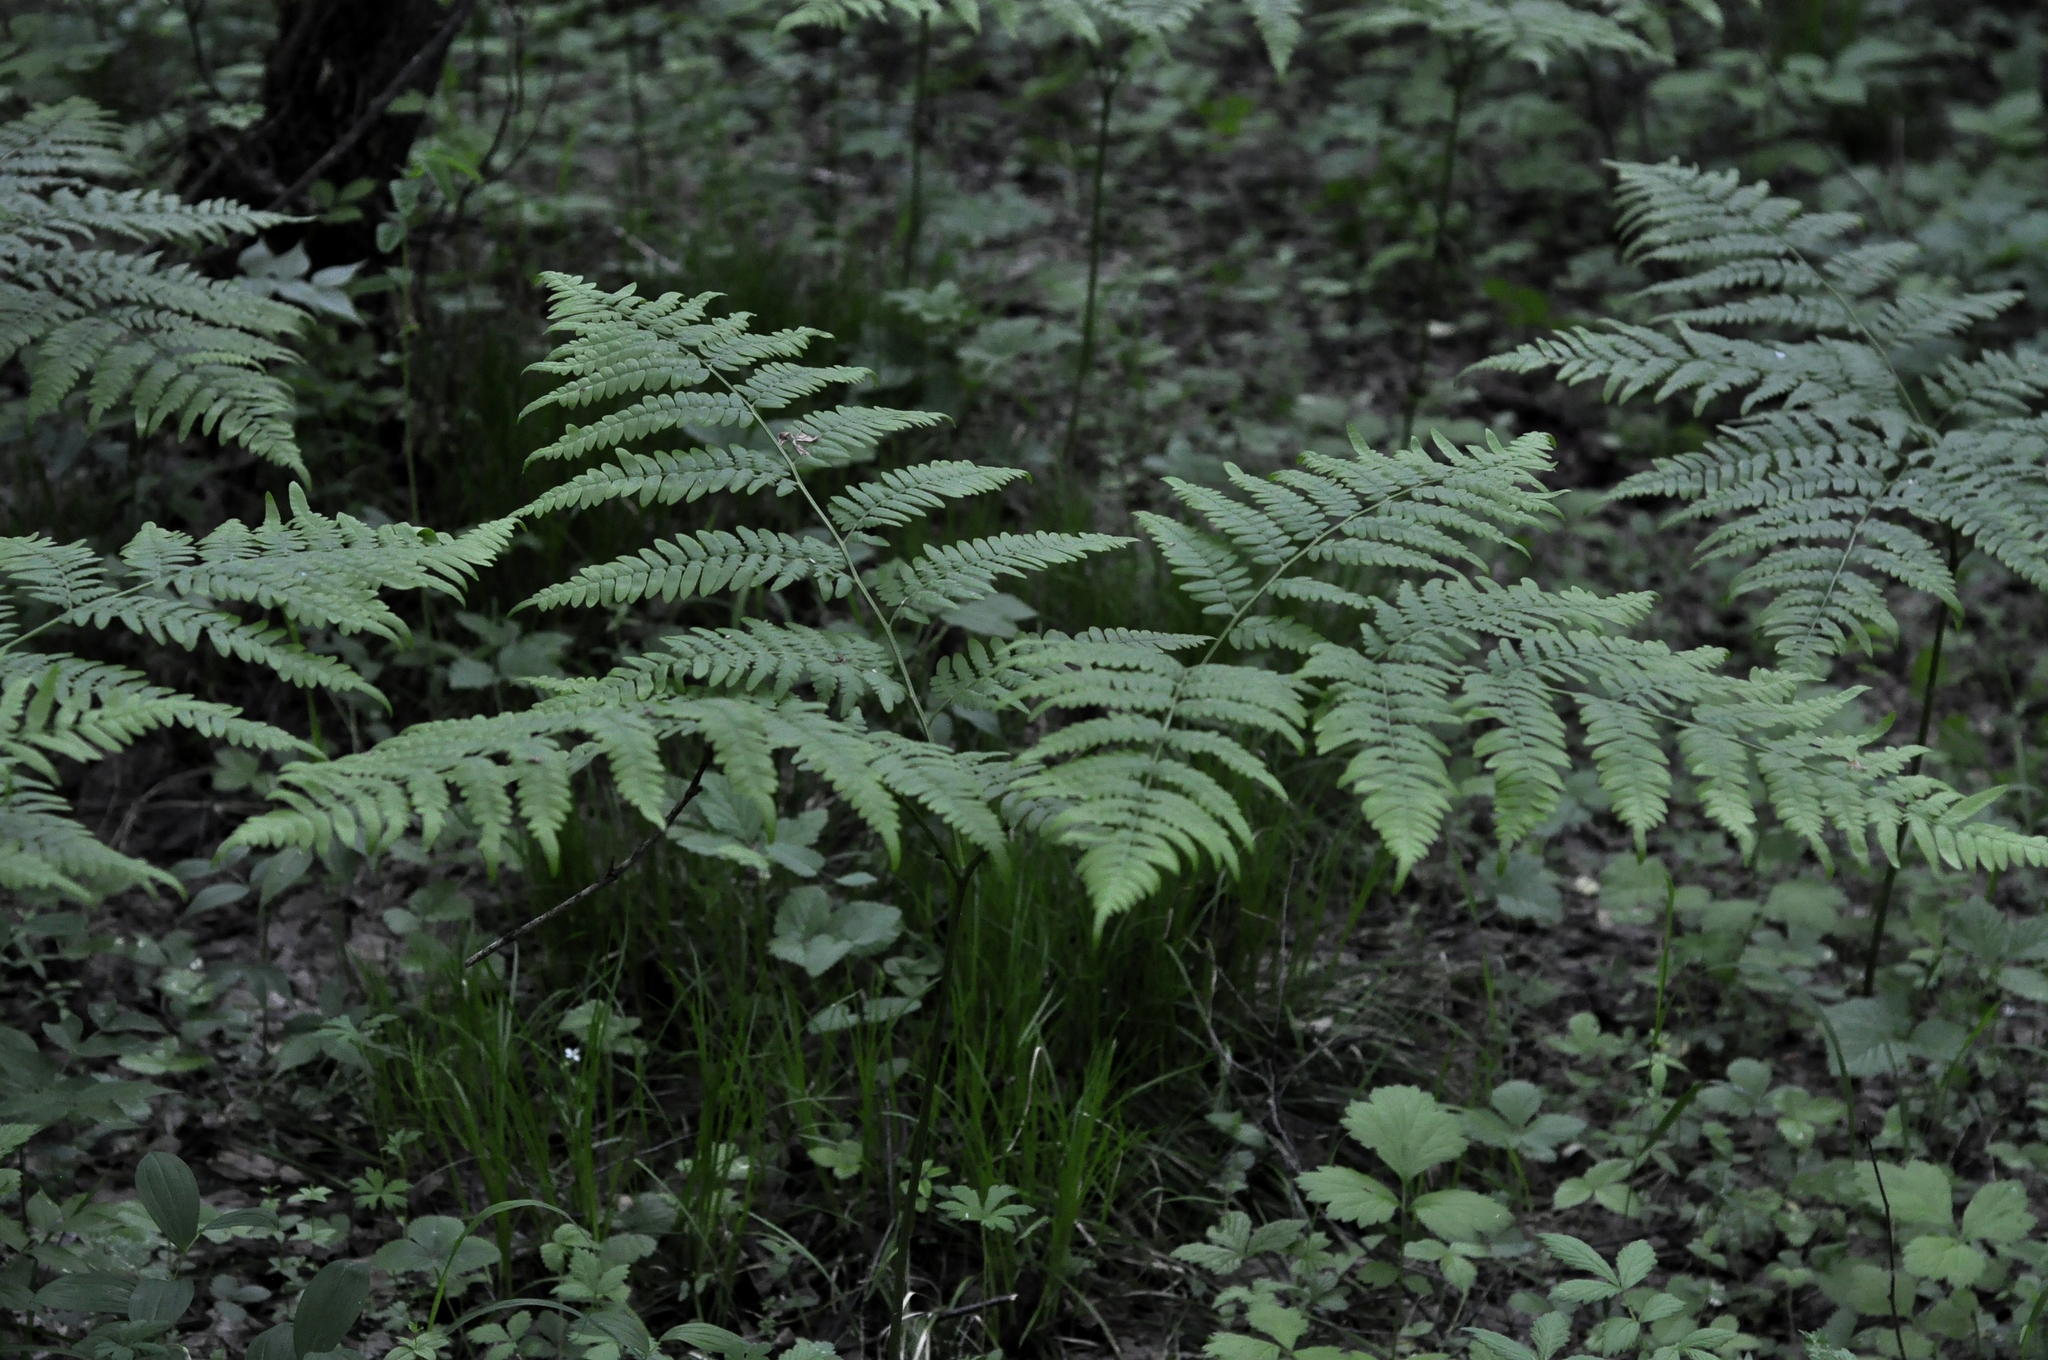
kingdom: Plantae
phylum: Tracheophyta
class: Polypodiopsida
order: Polypodiales
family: Dennstaedtiaceae
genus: Pteridium
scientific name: Pteridium aquilinum
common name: Bracken
